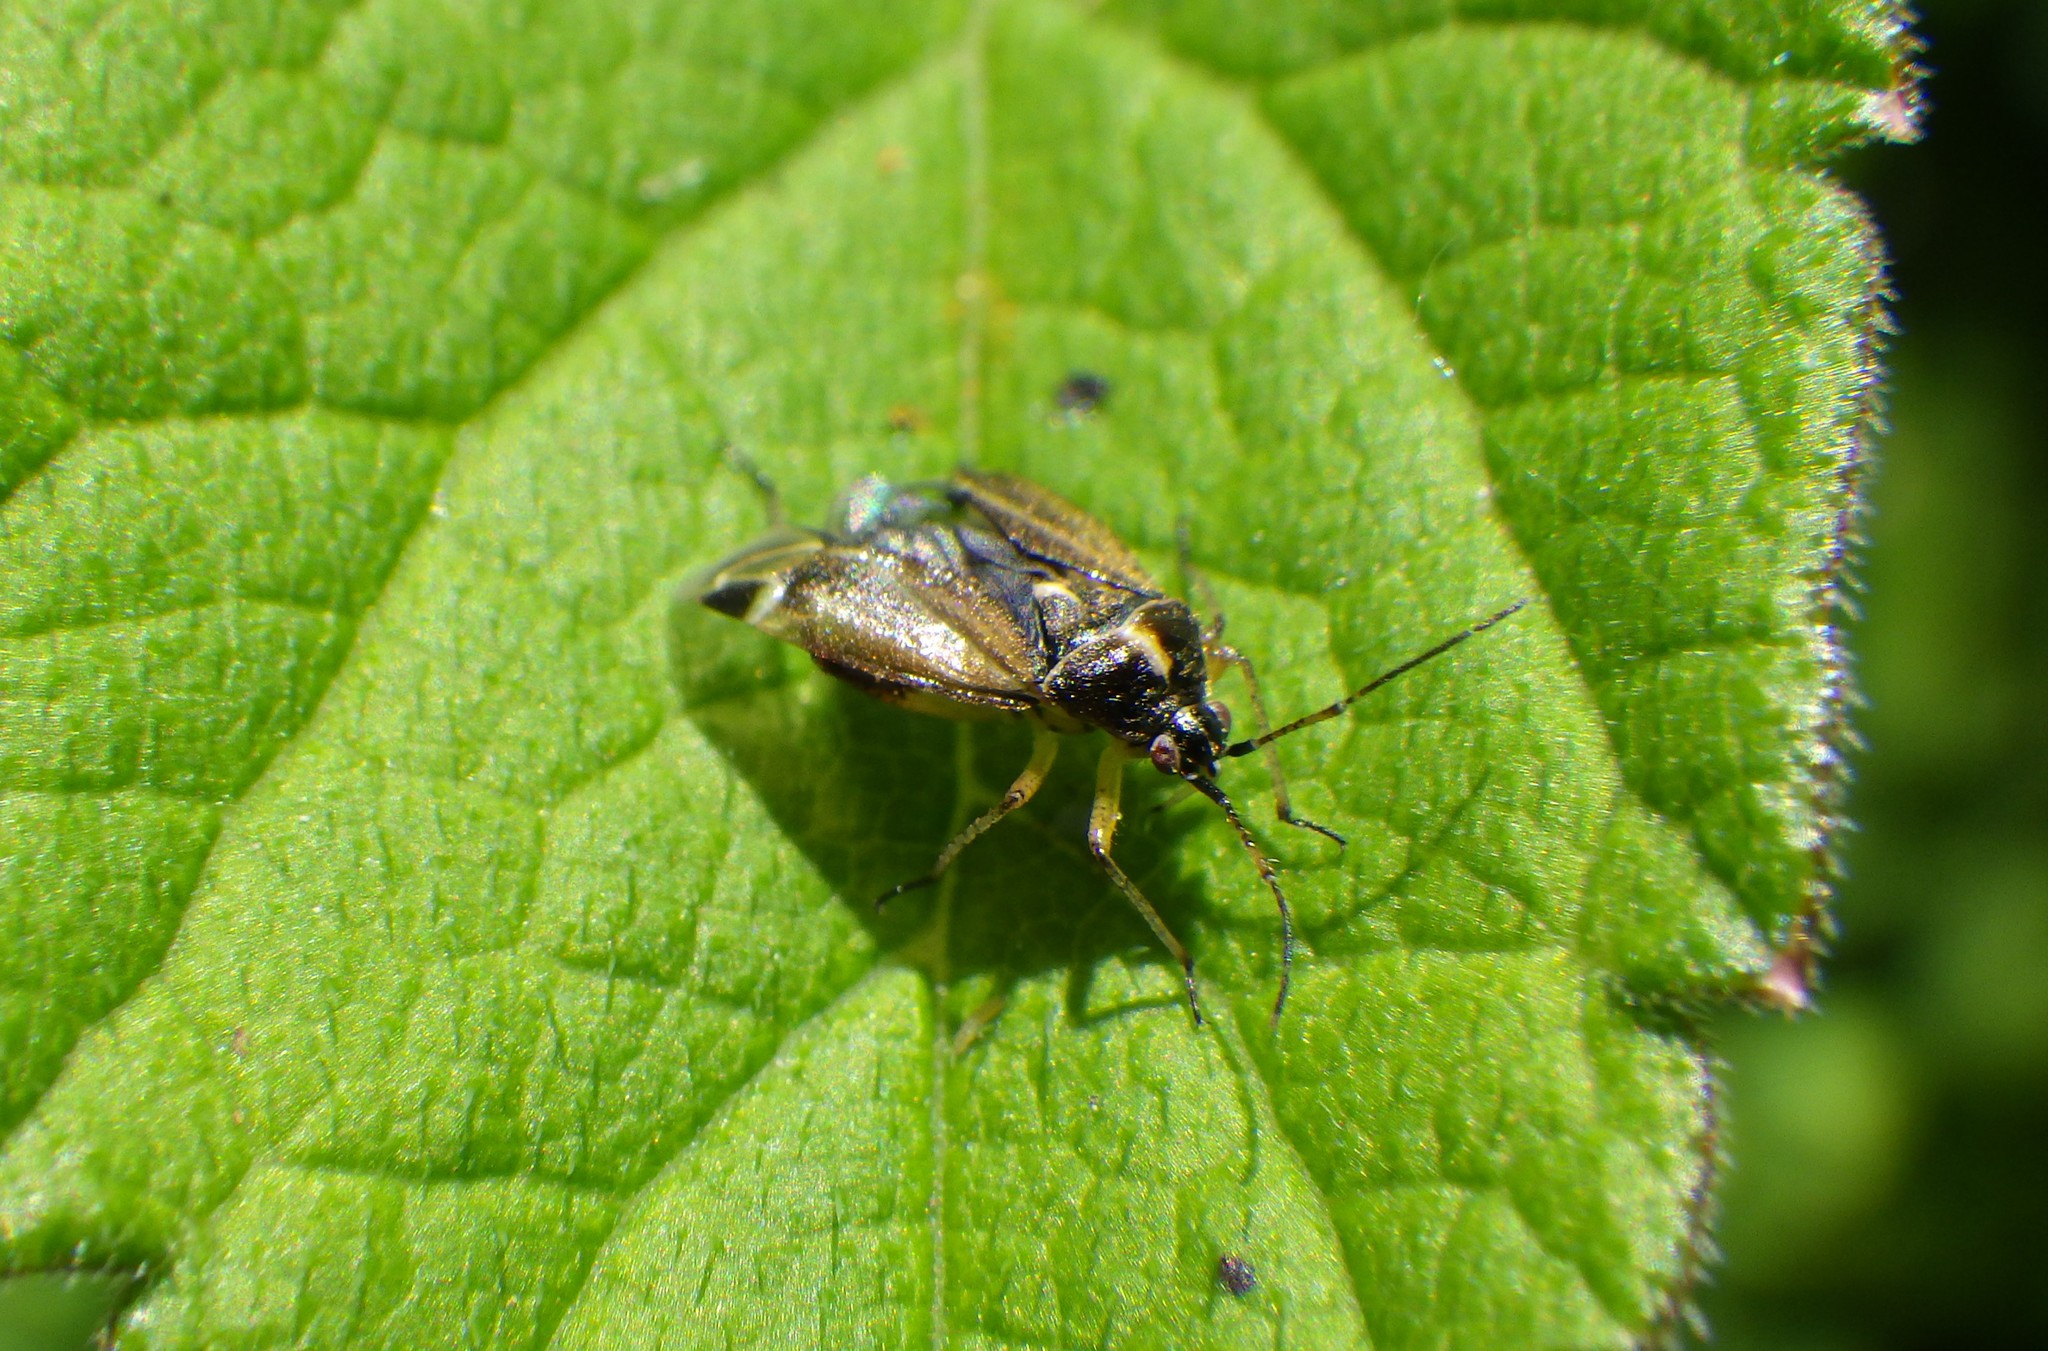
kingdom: Animalia
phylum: Arthropoda
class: Insecta
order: Hemiptera
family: Miridae
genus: Harpocera
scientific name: Harpocera thoracica
